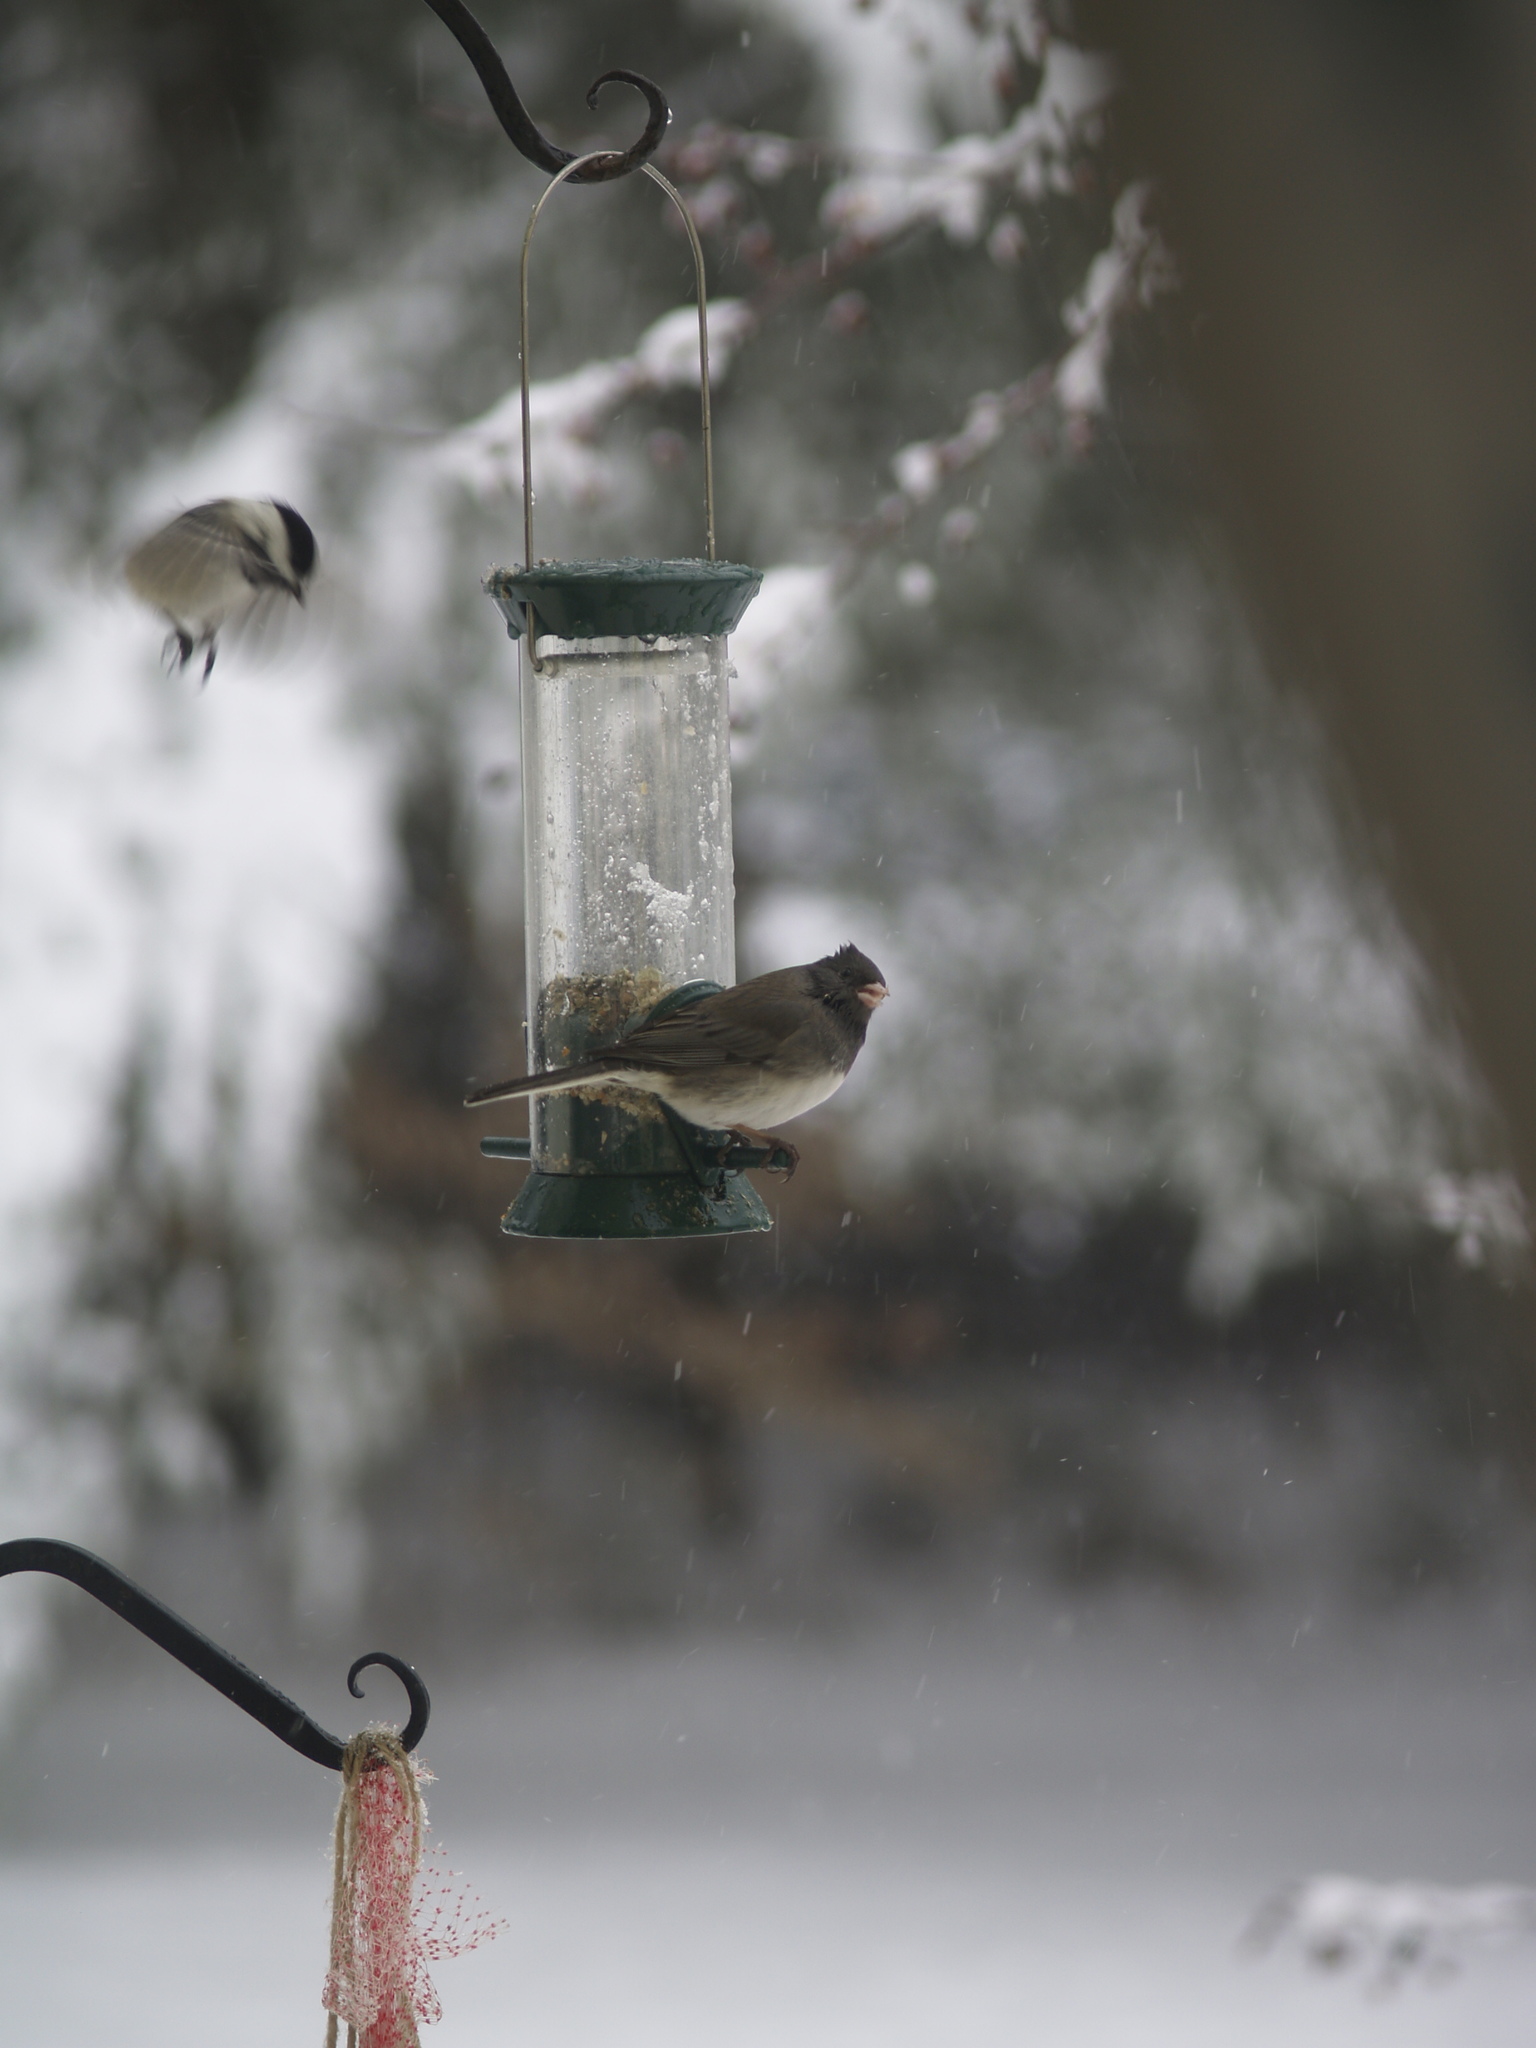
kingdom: Animalia
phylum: Chordata
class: Aves
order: Passeriformes
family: Passerellidae
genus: Junco
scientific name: Junco hyemalis
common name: Dark-eyed junco
